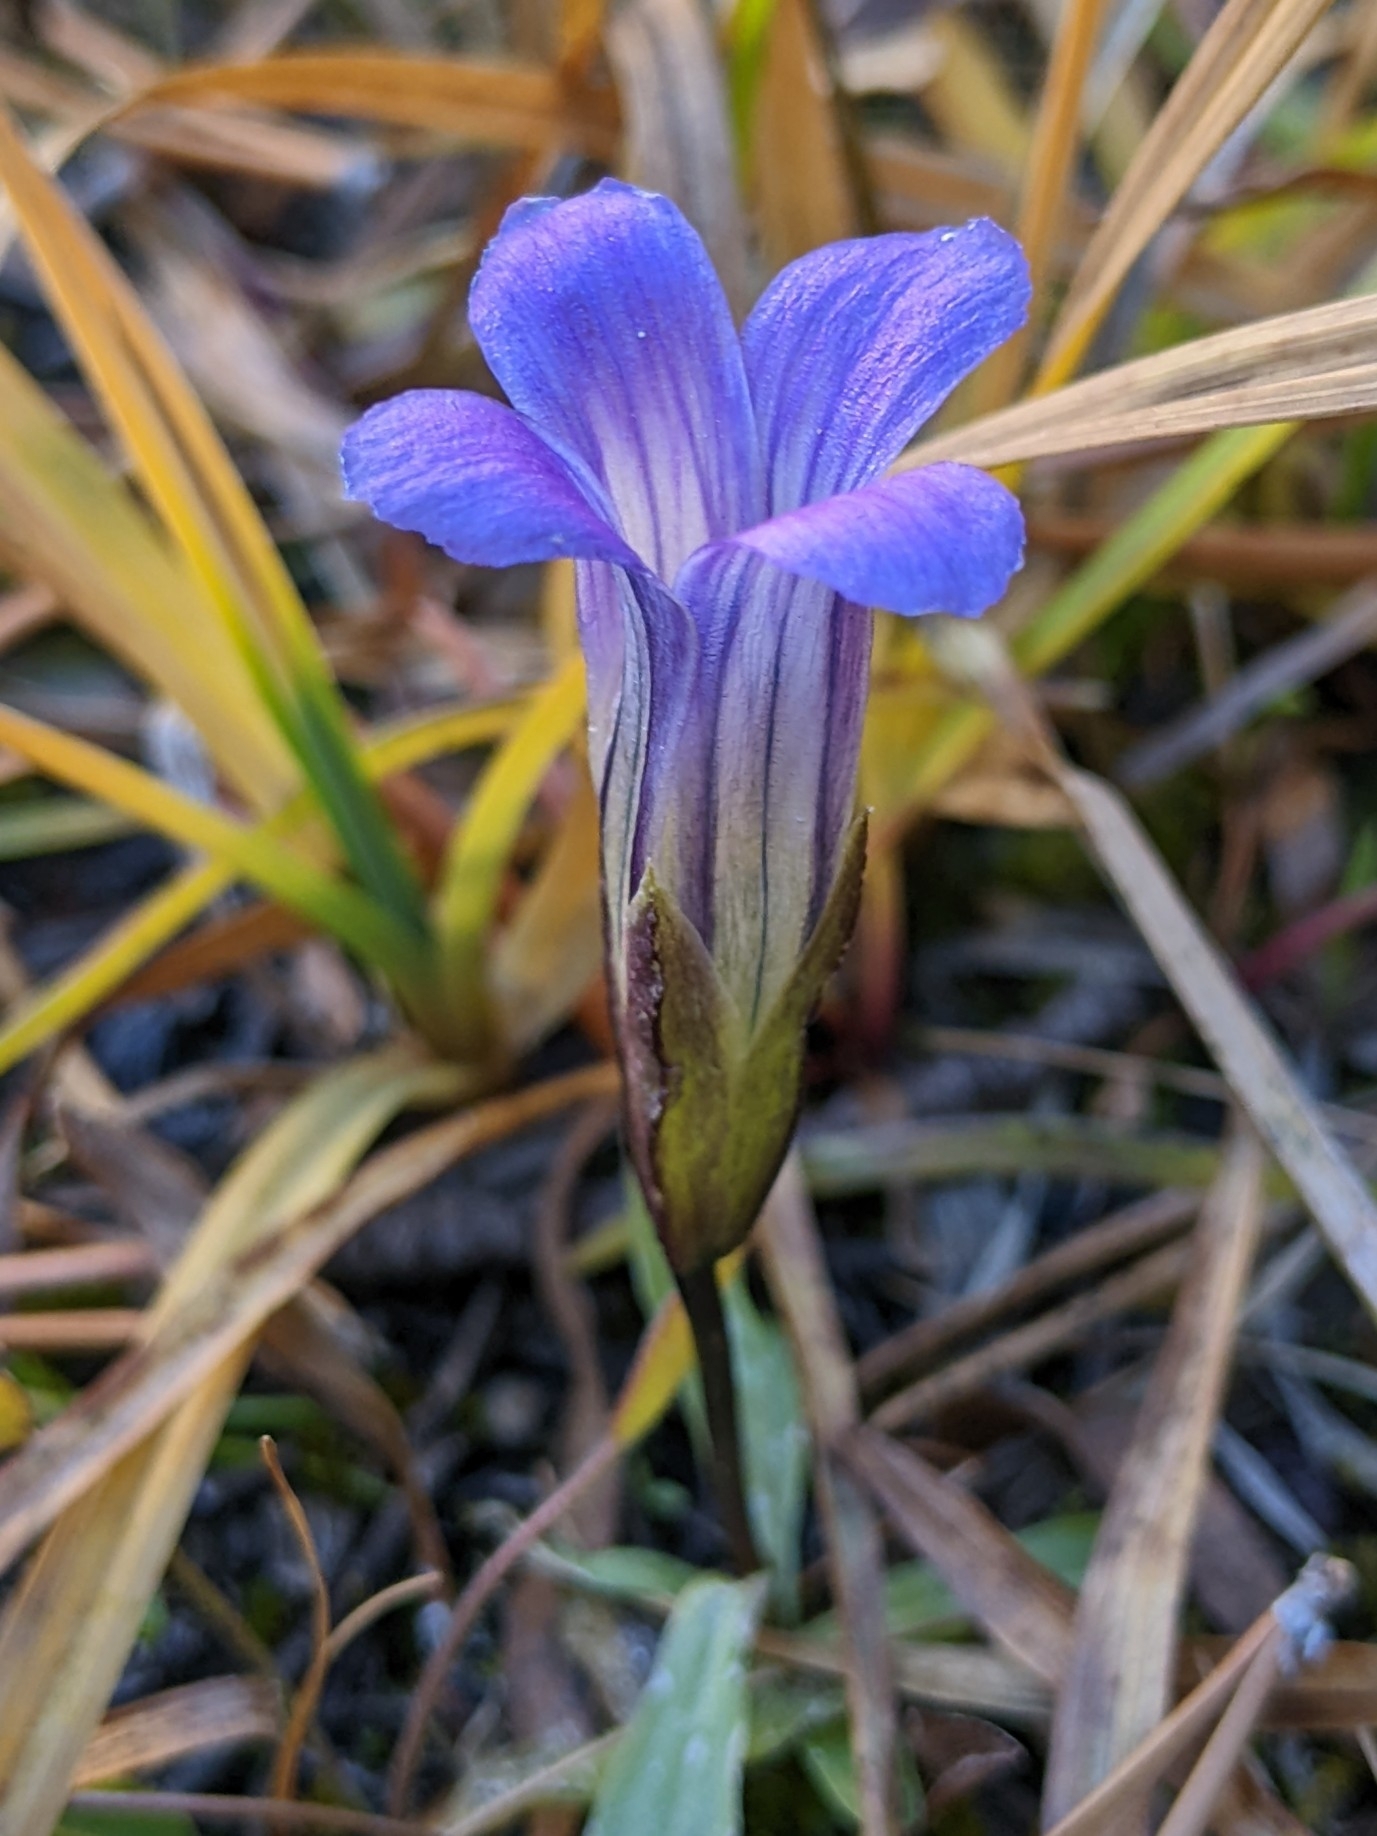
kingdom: Plantae
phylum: Tracheophyta
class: Magnoliopsida
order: Gentianales
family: Gentianaceae
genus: Gentianopsis
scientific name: Gentianopsis holopetala
